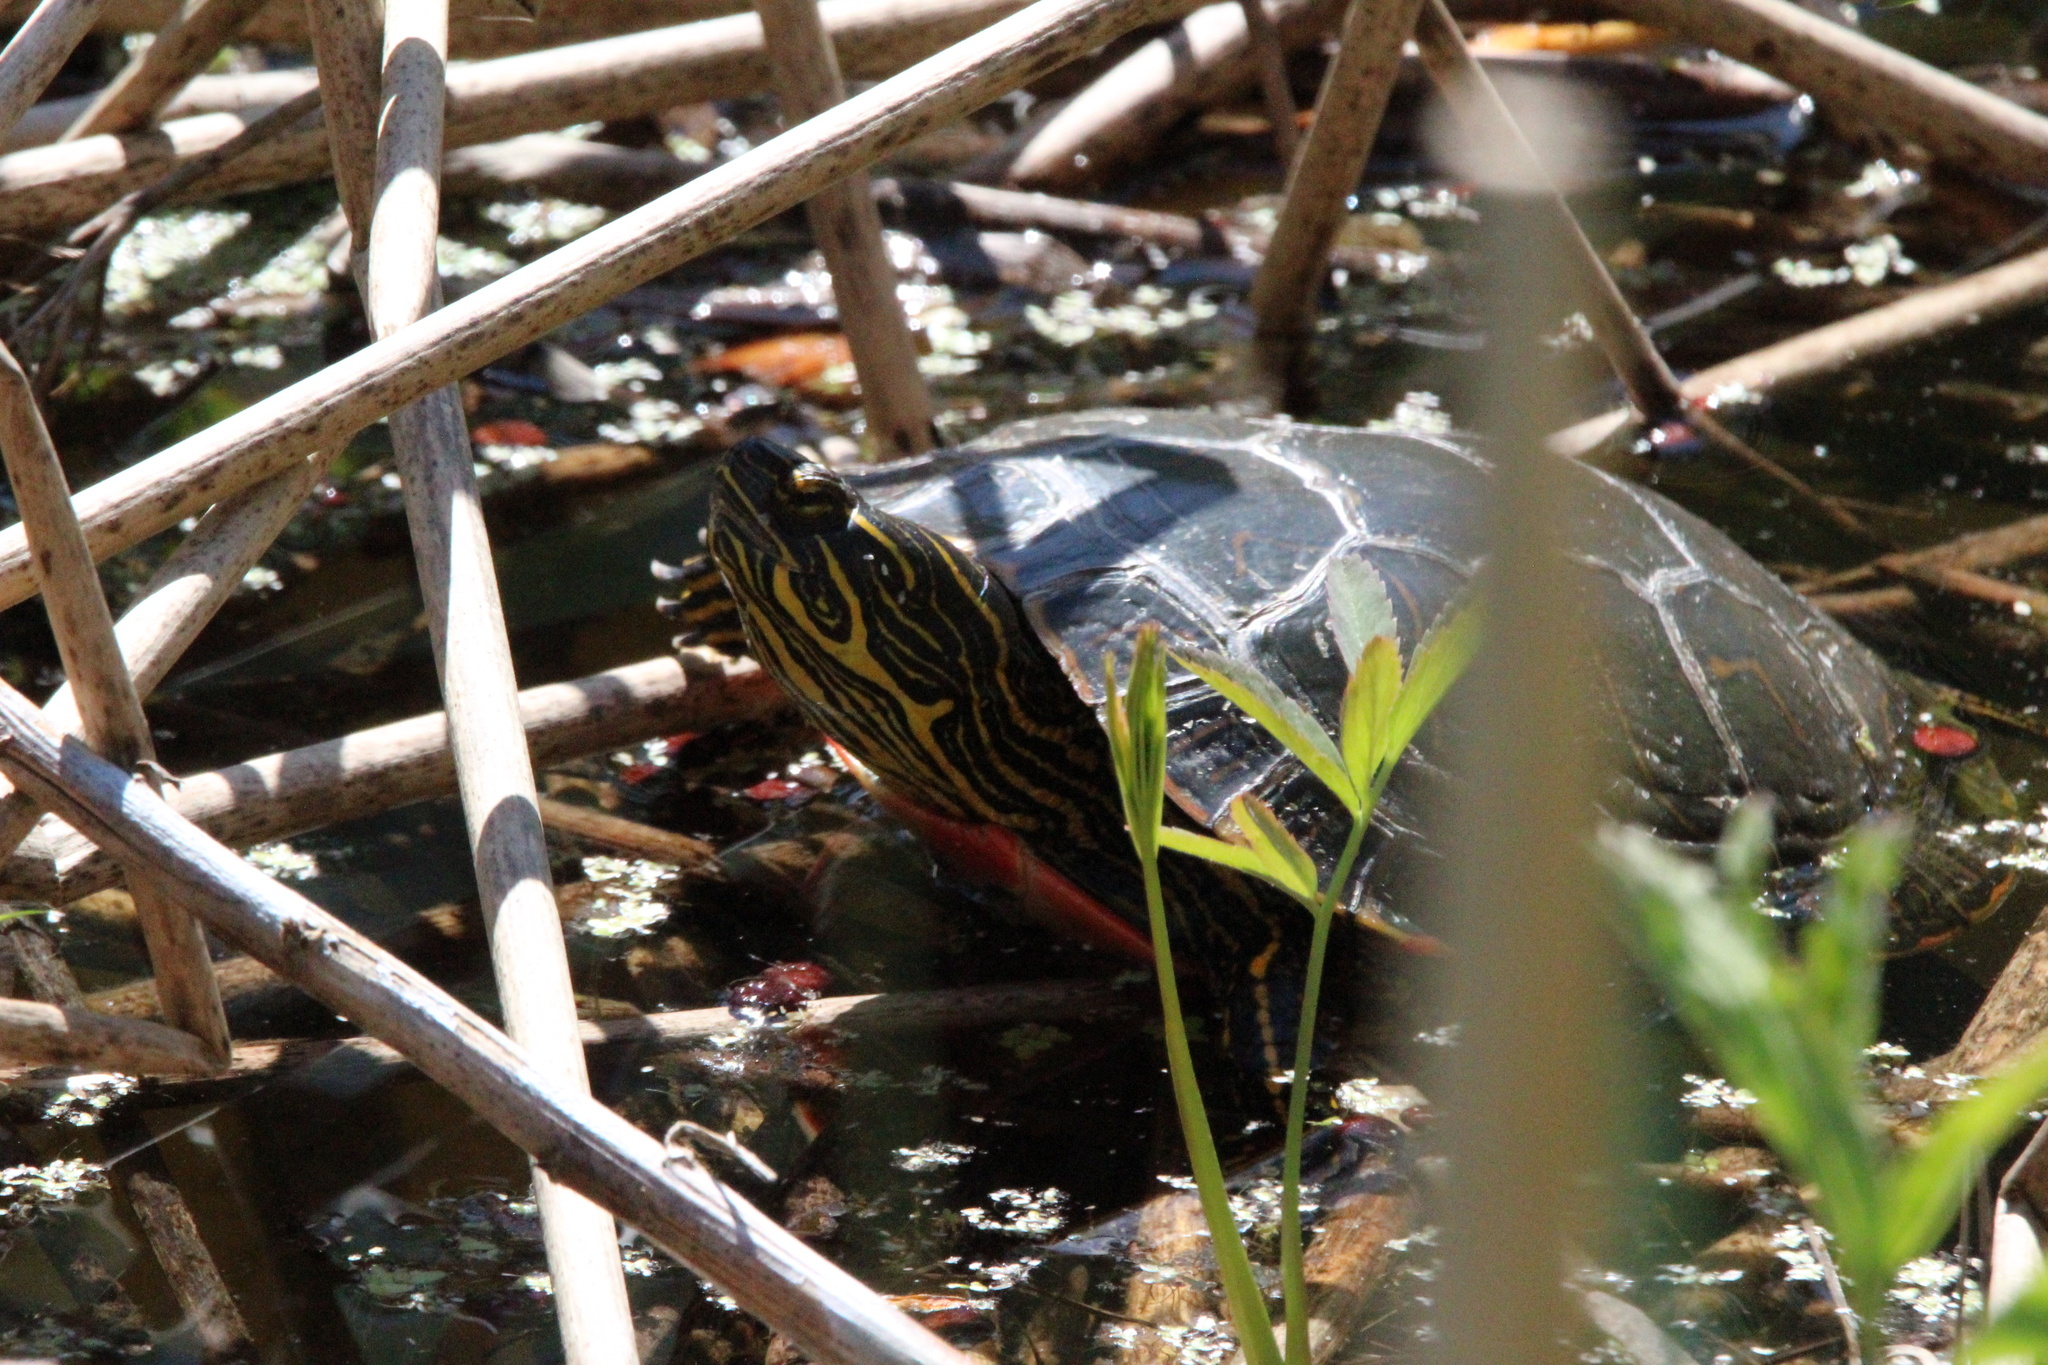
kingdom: Animalia
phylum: Chordata
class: Testudines
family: Emydidae
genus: Chrysemys
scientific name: Chrysemys picta
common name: Painted turtle
